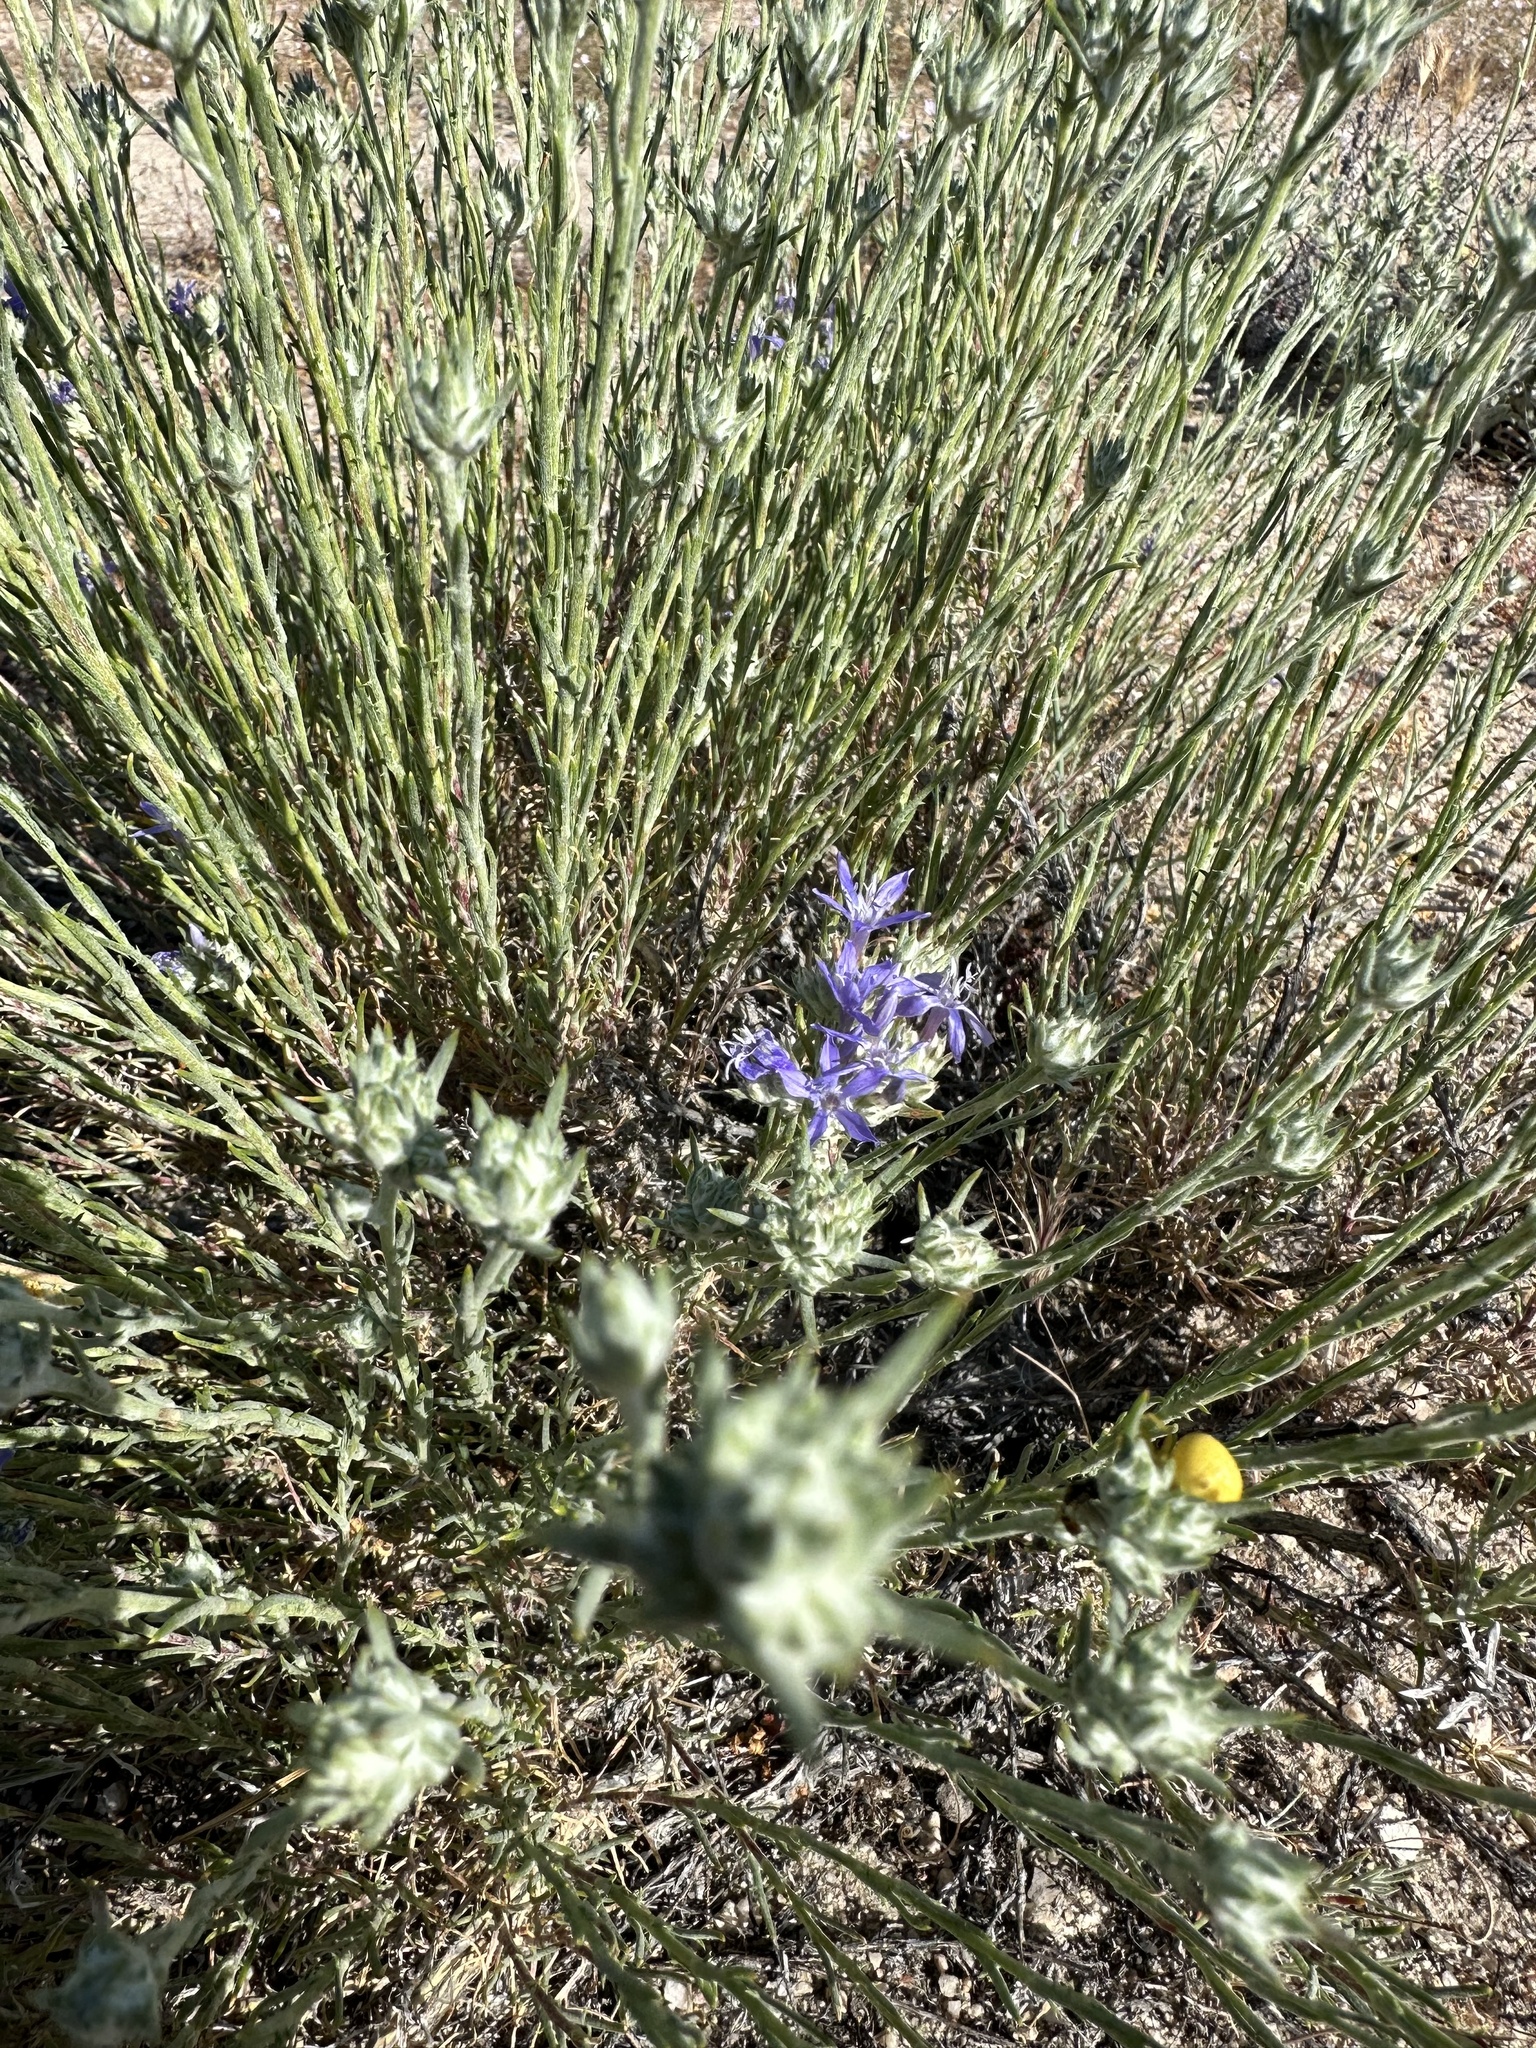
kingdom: Plantae
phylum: Tracheophyta
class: Magnoliopsida
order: Ericales
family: Polemoniaceae
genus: Eriastrum
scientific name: Eriastrum densifolium
